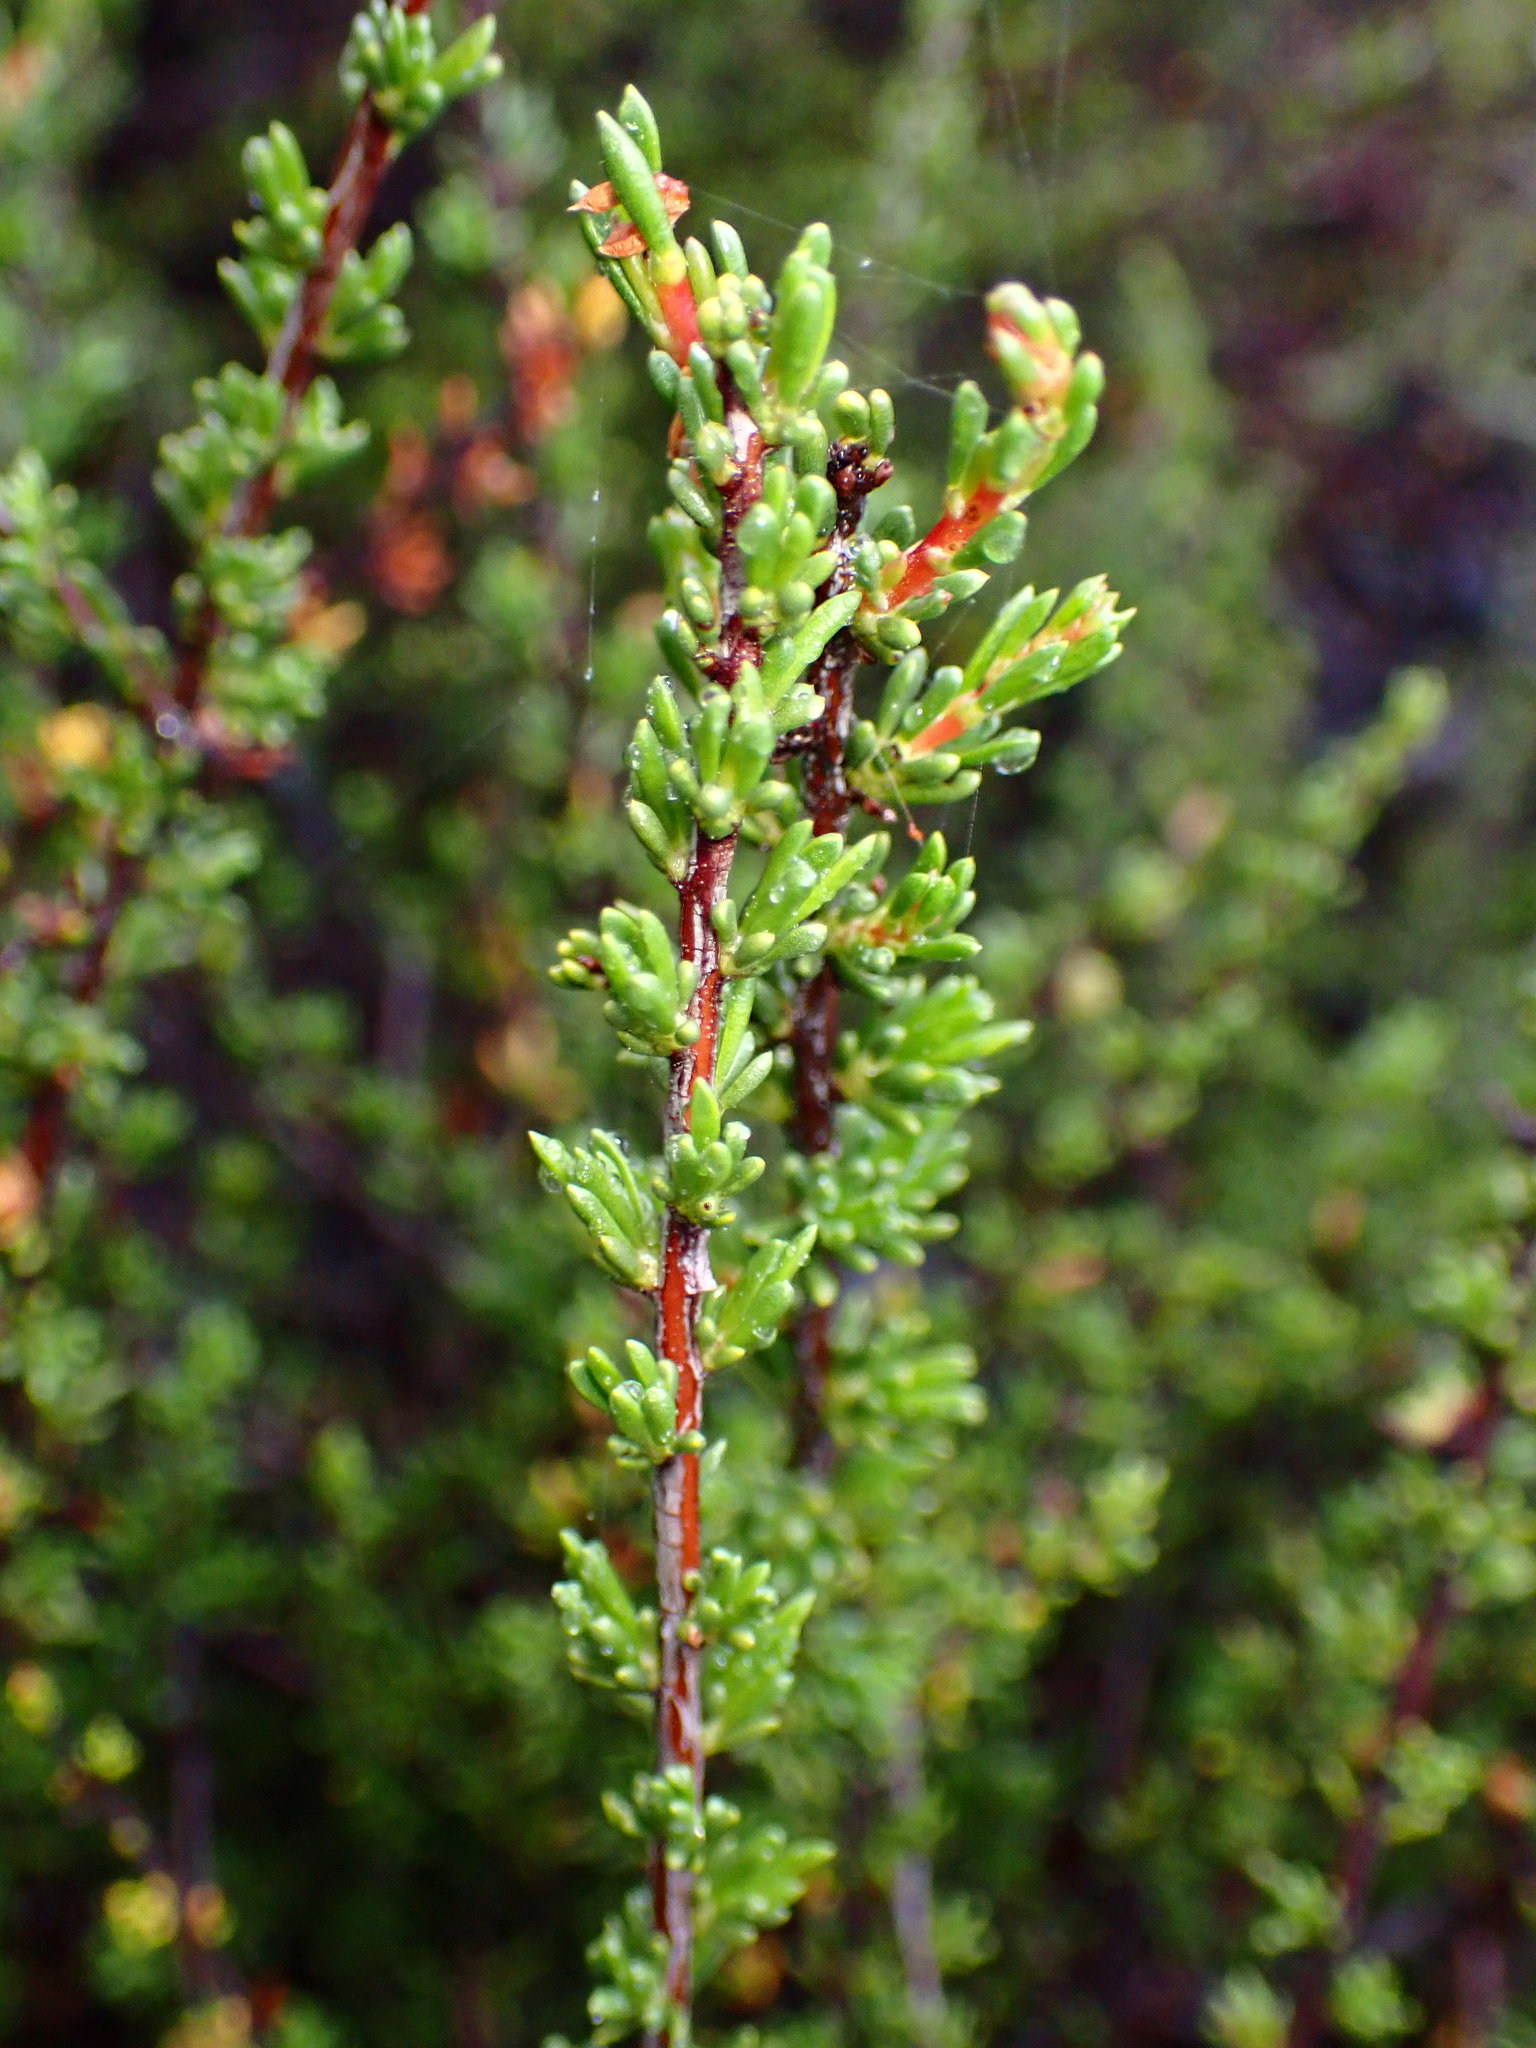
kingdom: Plantae
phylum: Tracheophyta
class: Magnoliopsida
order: Rosales
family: Rosaceae
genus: Adenostoma
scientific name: Adenostoma fasciculatum
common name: Chamise
